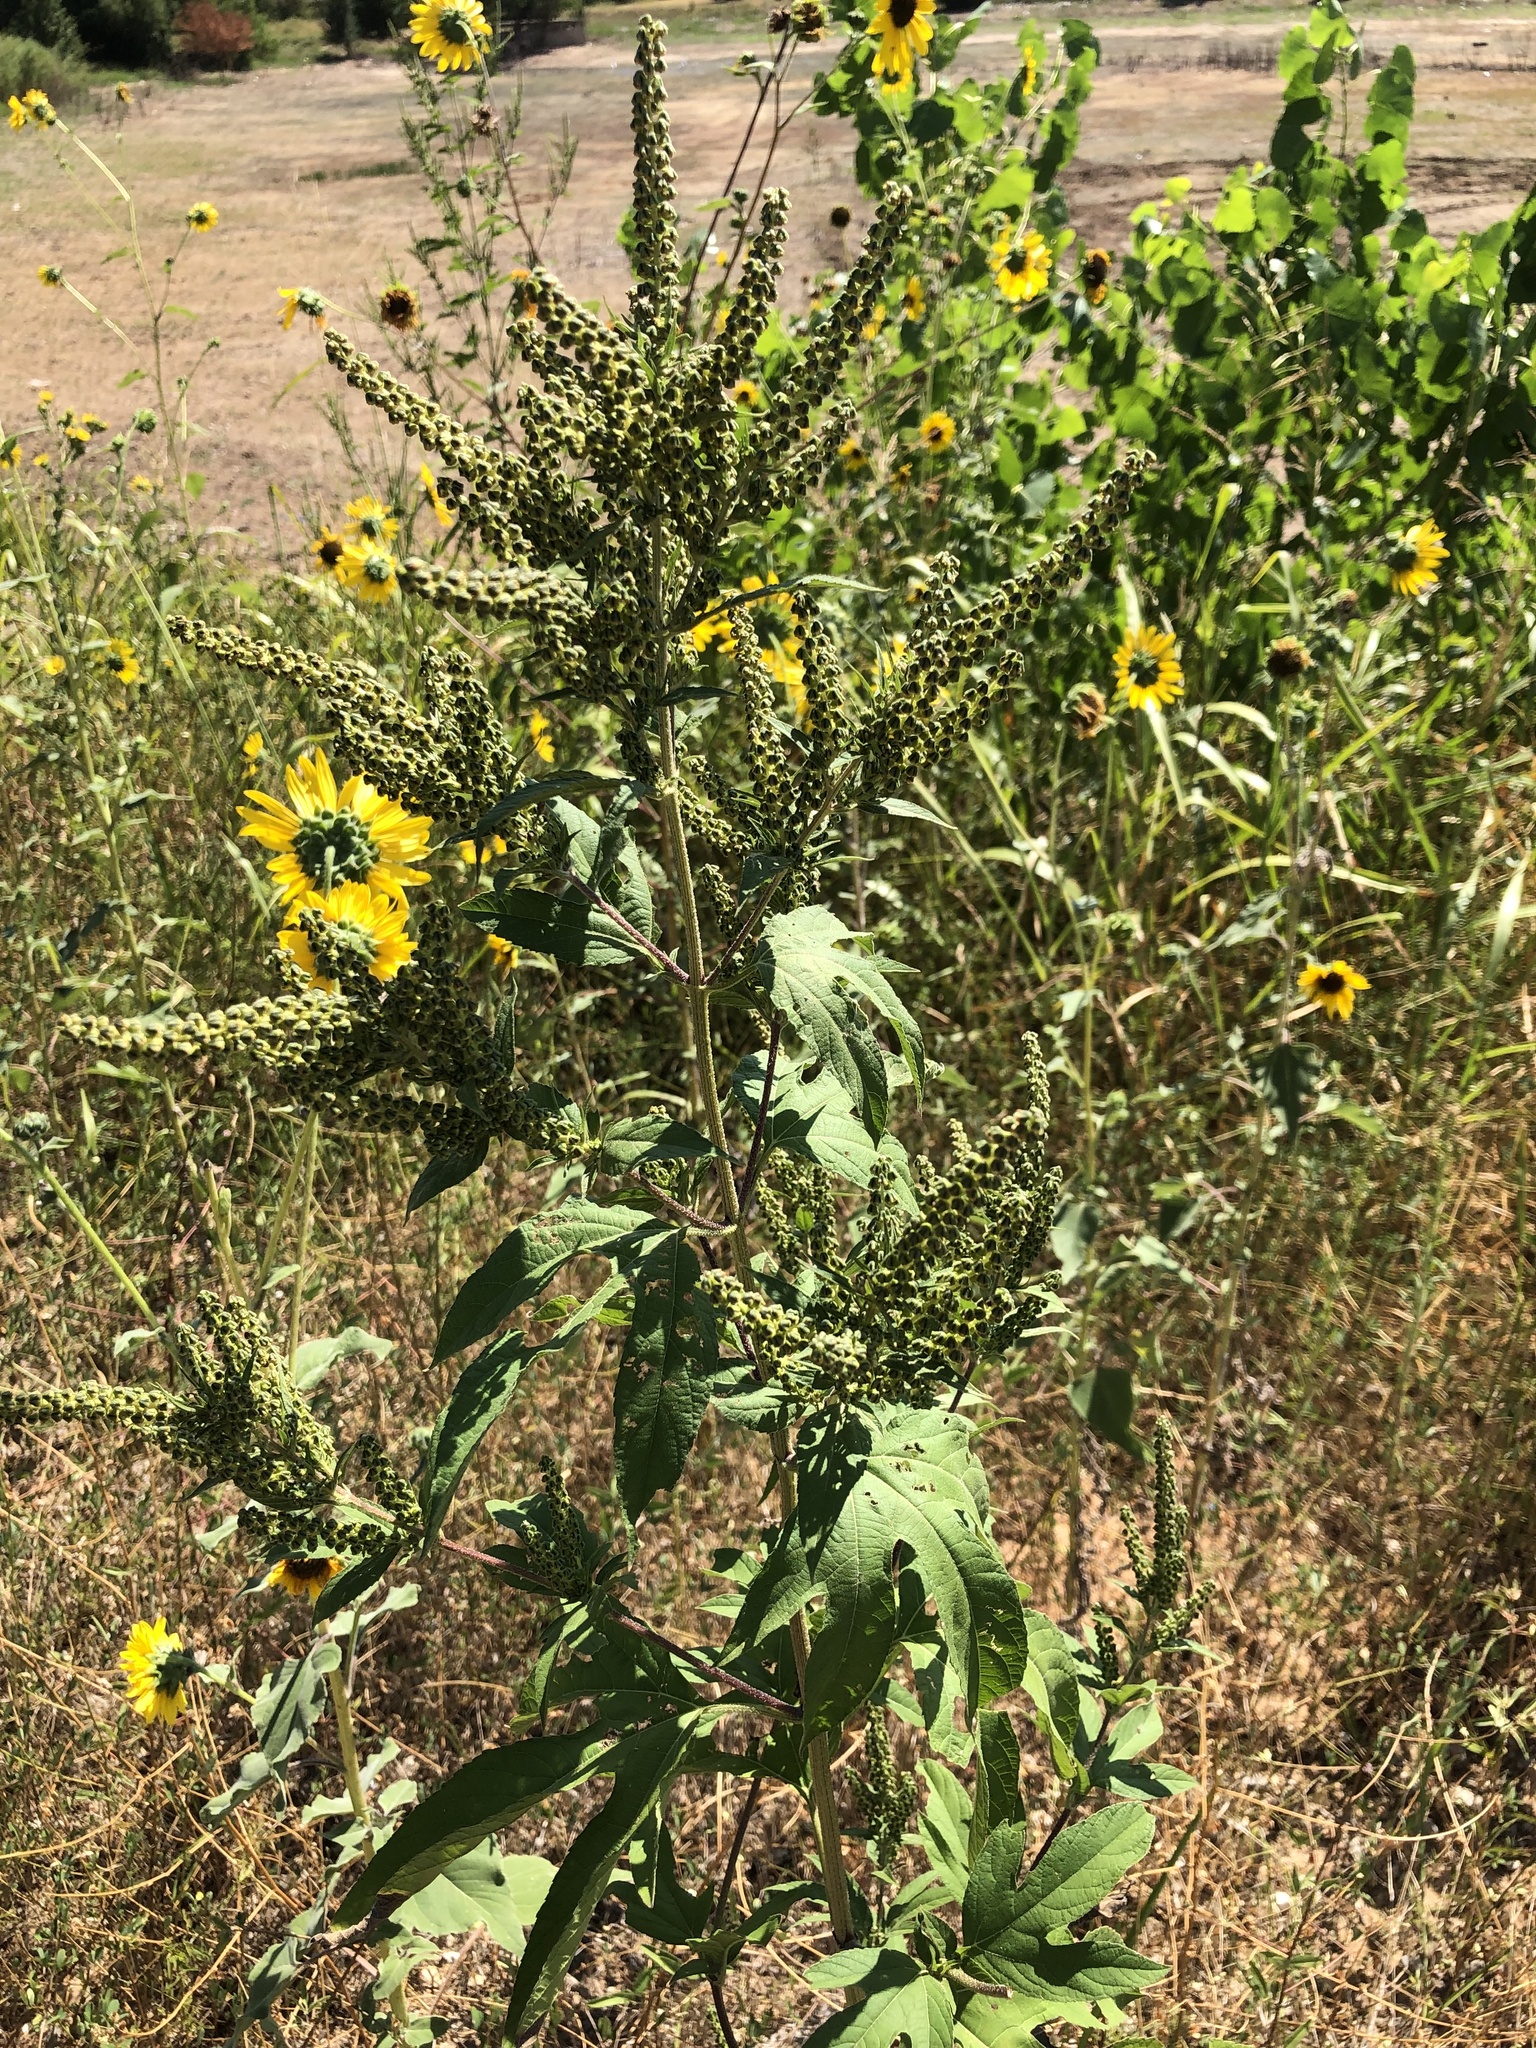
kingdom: Plantae
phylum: Tracheophyta
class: Magnoliopsida
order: Asterales
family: Asteraceae
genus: Ambrosia
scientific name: Ambrosia trifida
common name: Giant ragweed
